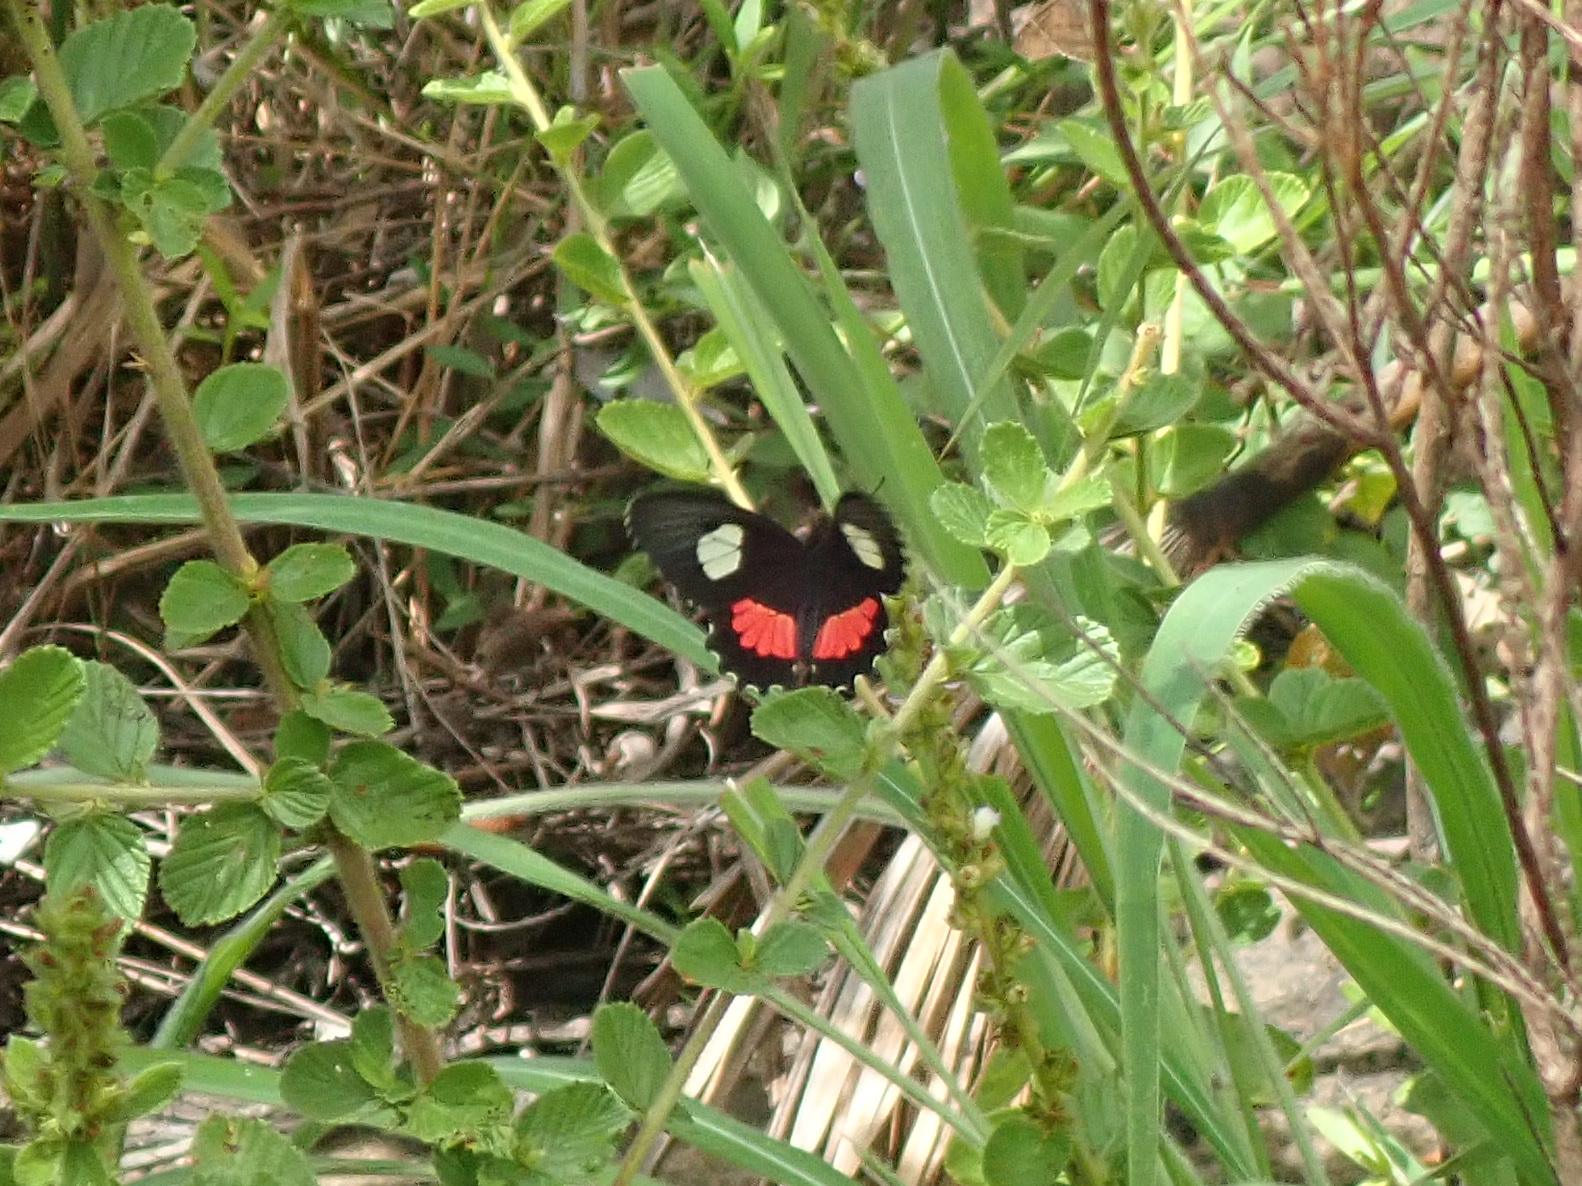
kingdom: Animalia
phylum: Arthropoda
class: Insecta
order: Lepidoptera
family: Papilionidae
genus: Parides
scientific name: Parides anchises
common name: Cattle heart
